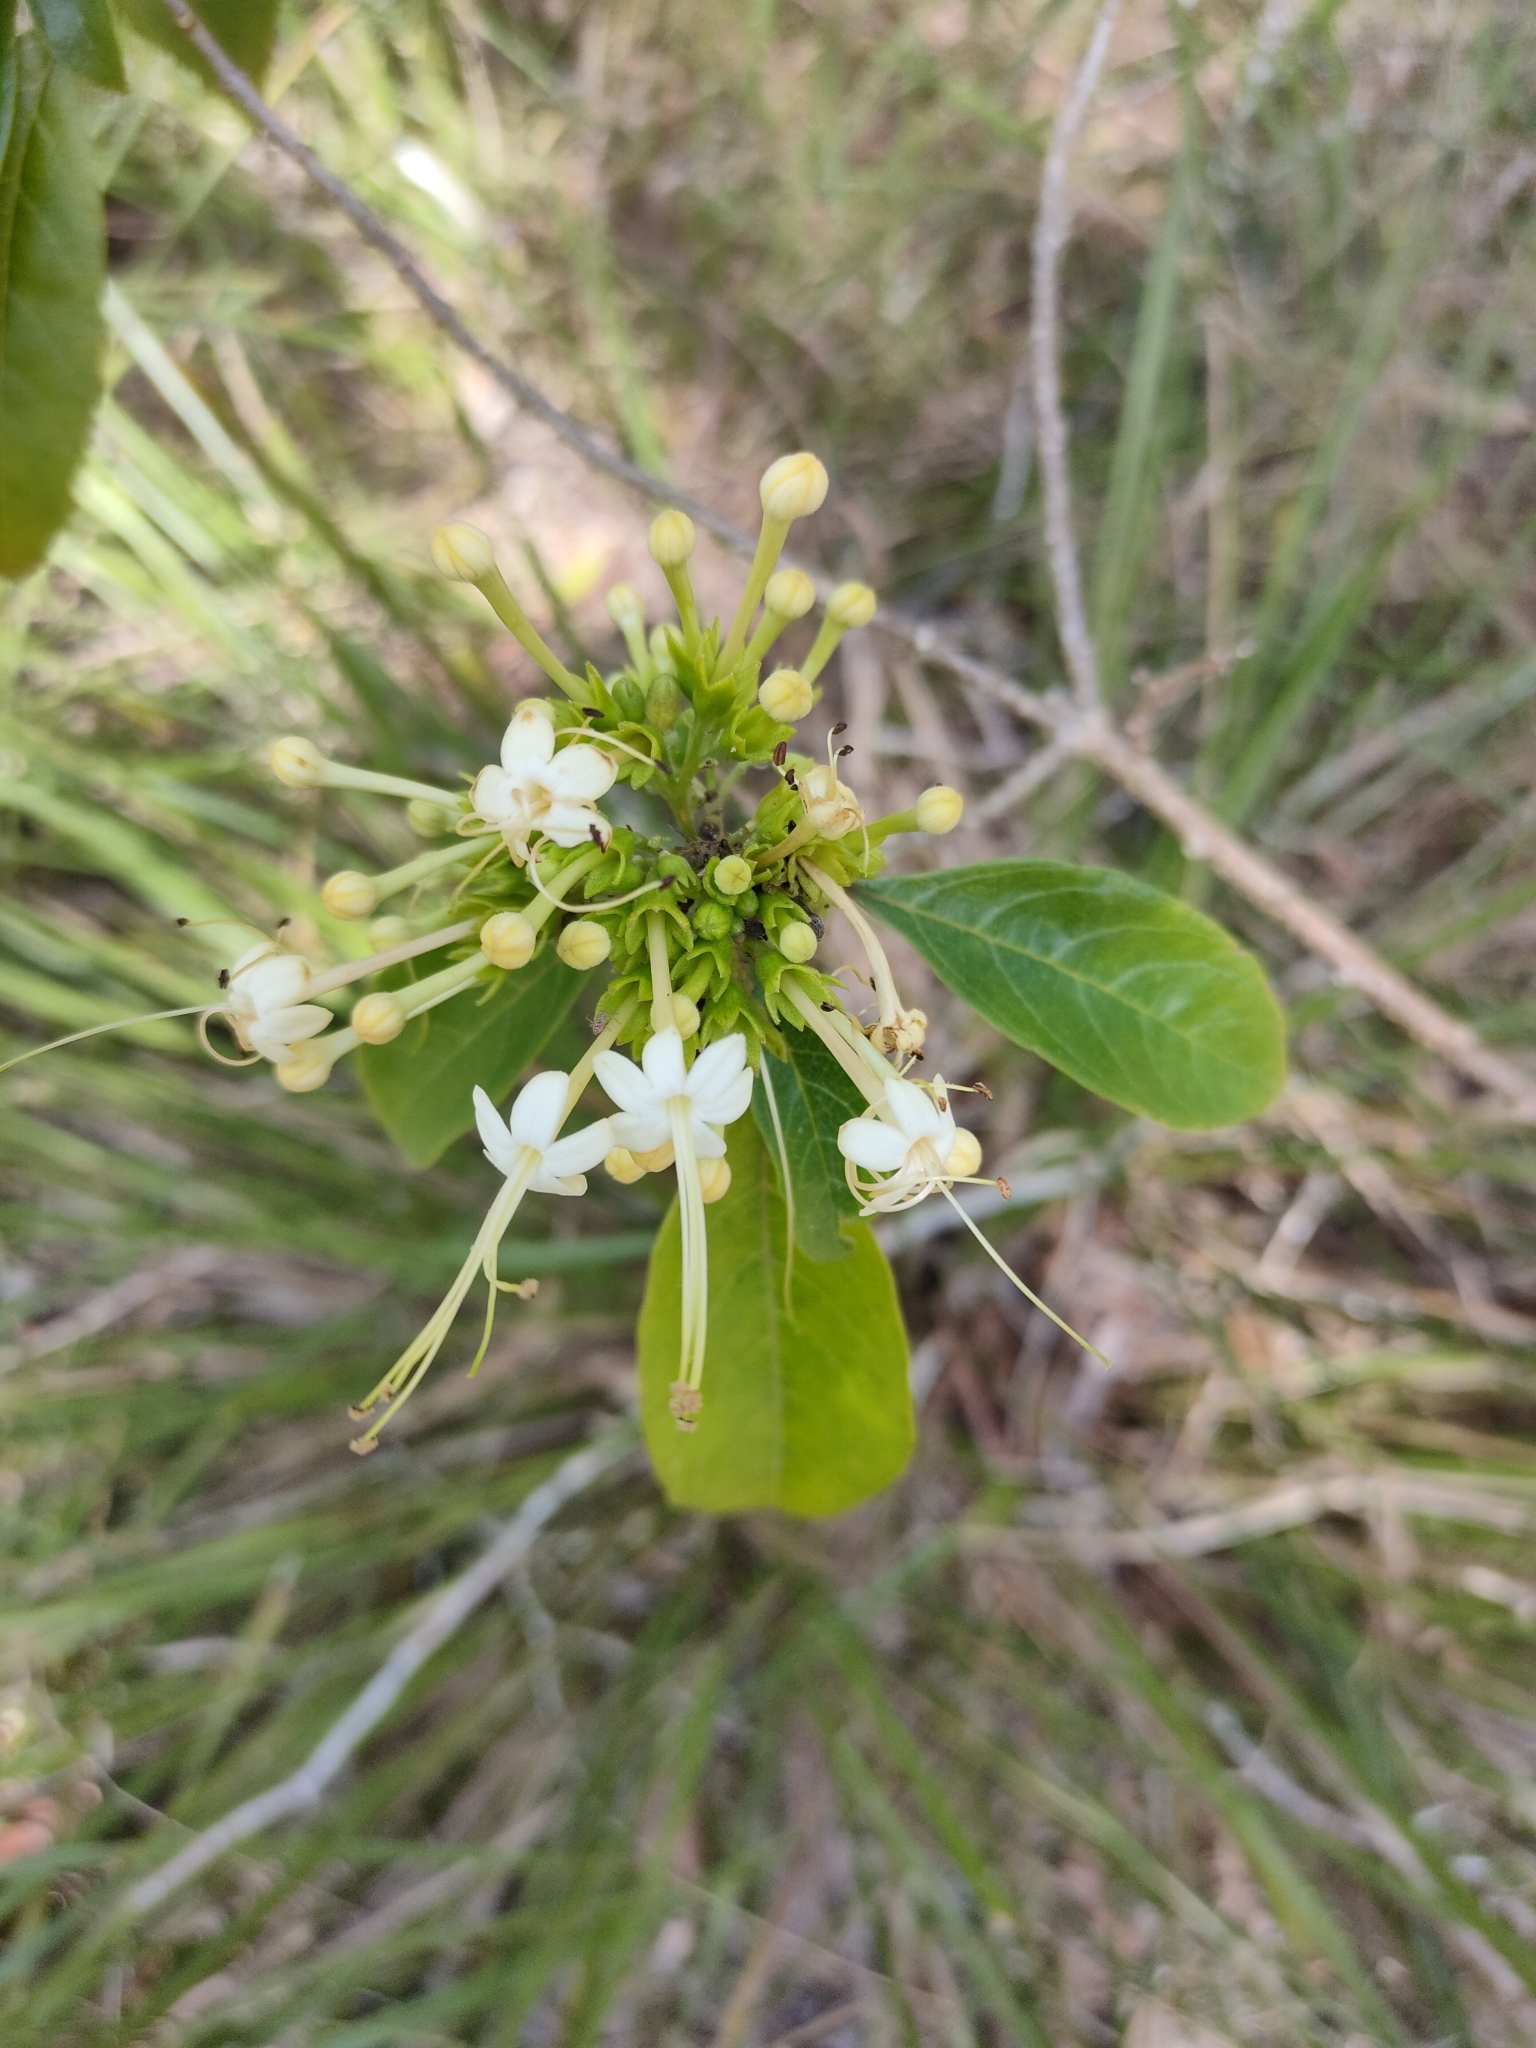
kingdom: Plantae
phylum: Tracheophyta
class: Magnoliopsida
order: Lamiales
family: Lamiaceae
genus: Clerodendrum
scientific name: Clerodendrum floribundum
